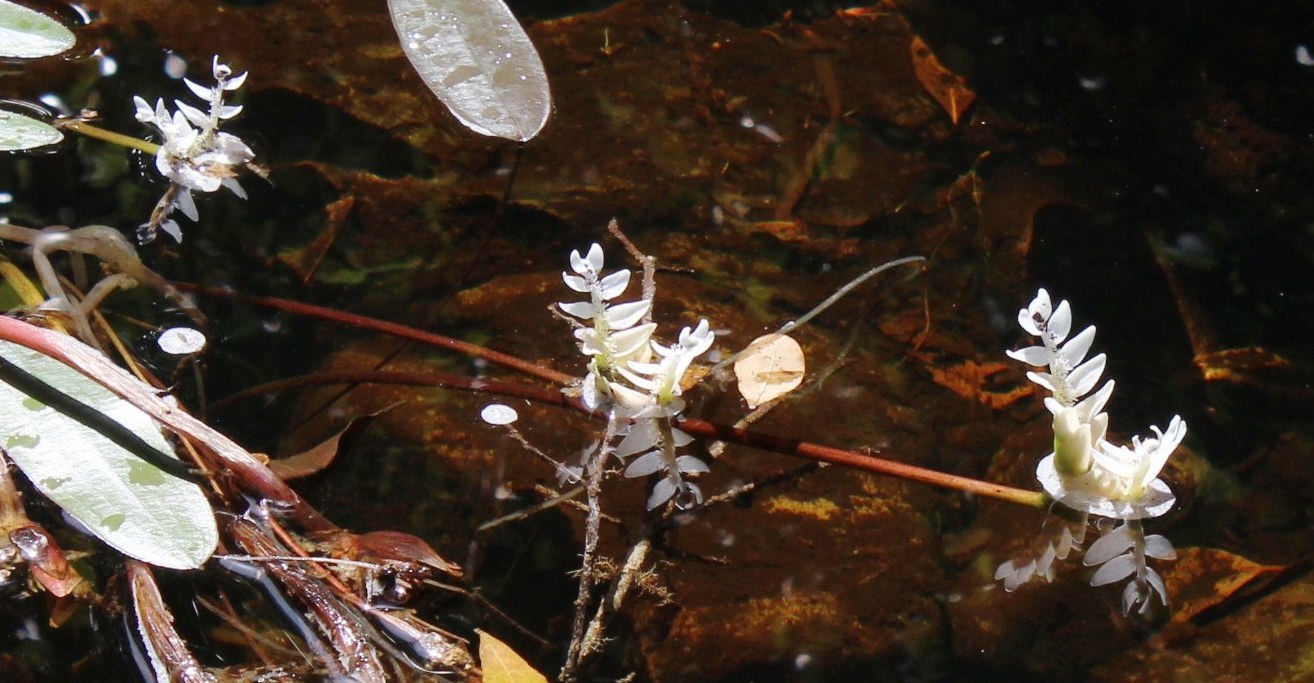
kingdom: Plantae
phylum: Tracheophyta
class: Liliopsida
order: Alismatales
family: Aponogetonaceae
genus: Aponogeton
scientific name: Aponogeton distachyos
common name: Cape-pondweed
